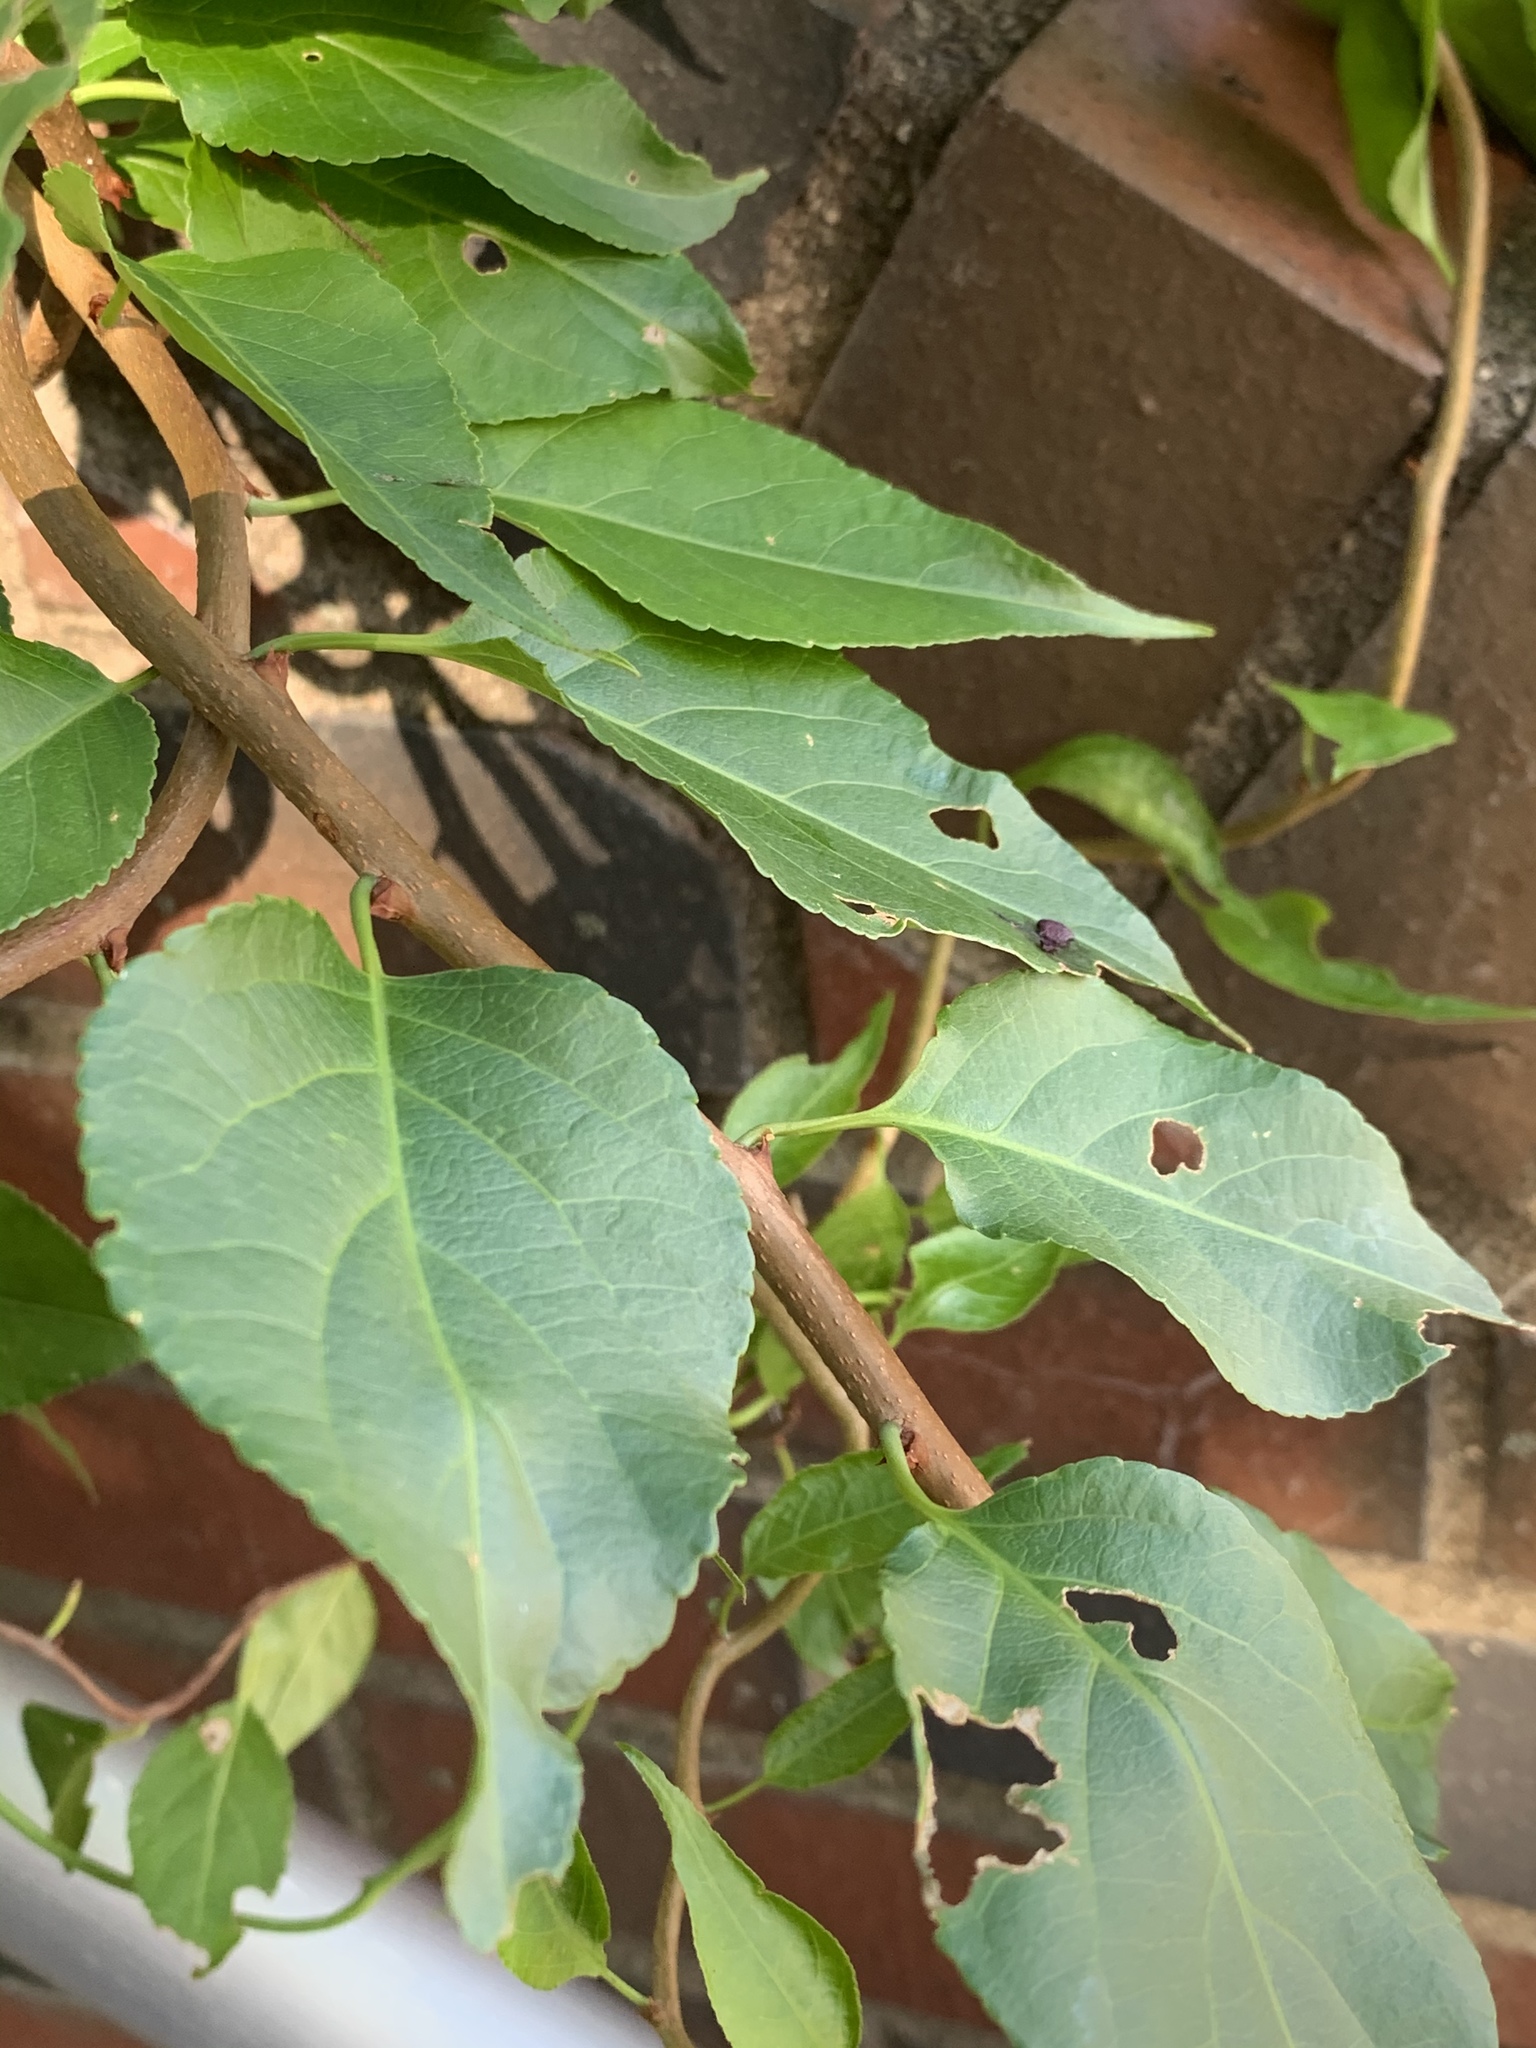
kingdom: Plantae
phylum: Tracheophyta
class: Magnoliopsida
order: Celastrales
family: Celastraceae
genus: Celastrus
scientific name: Celastrus orbiculatus
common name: Oriental bittersweet
